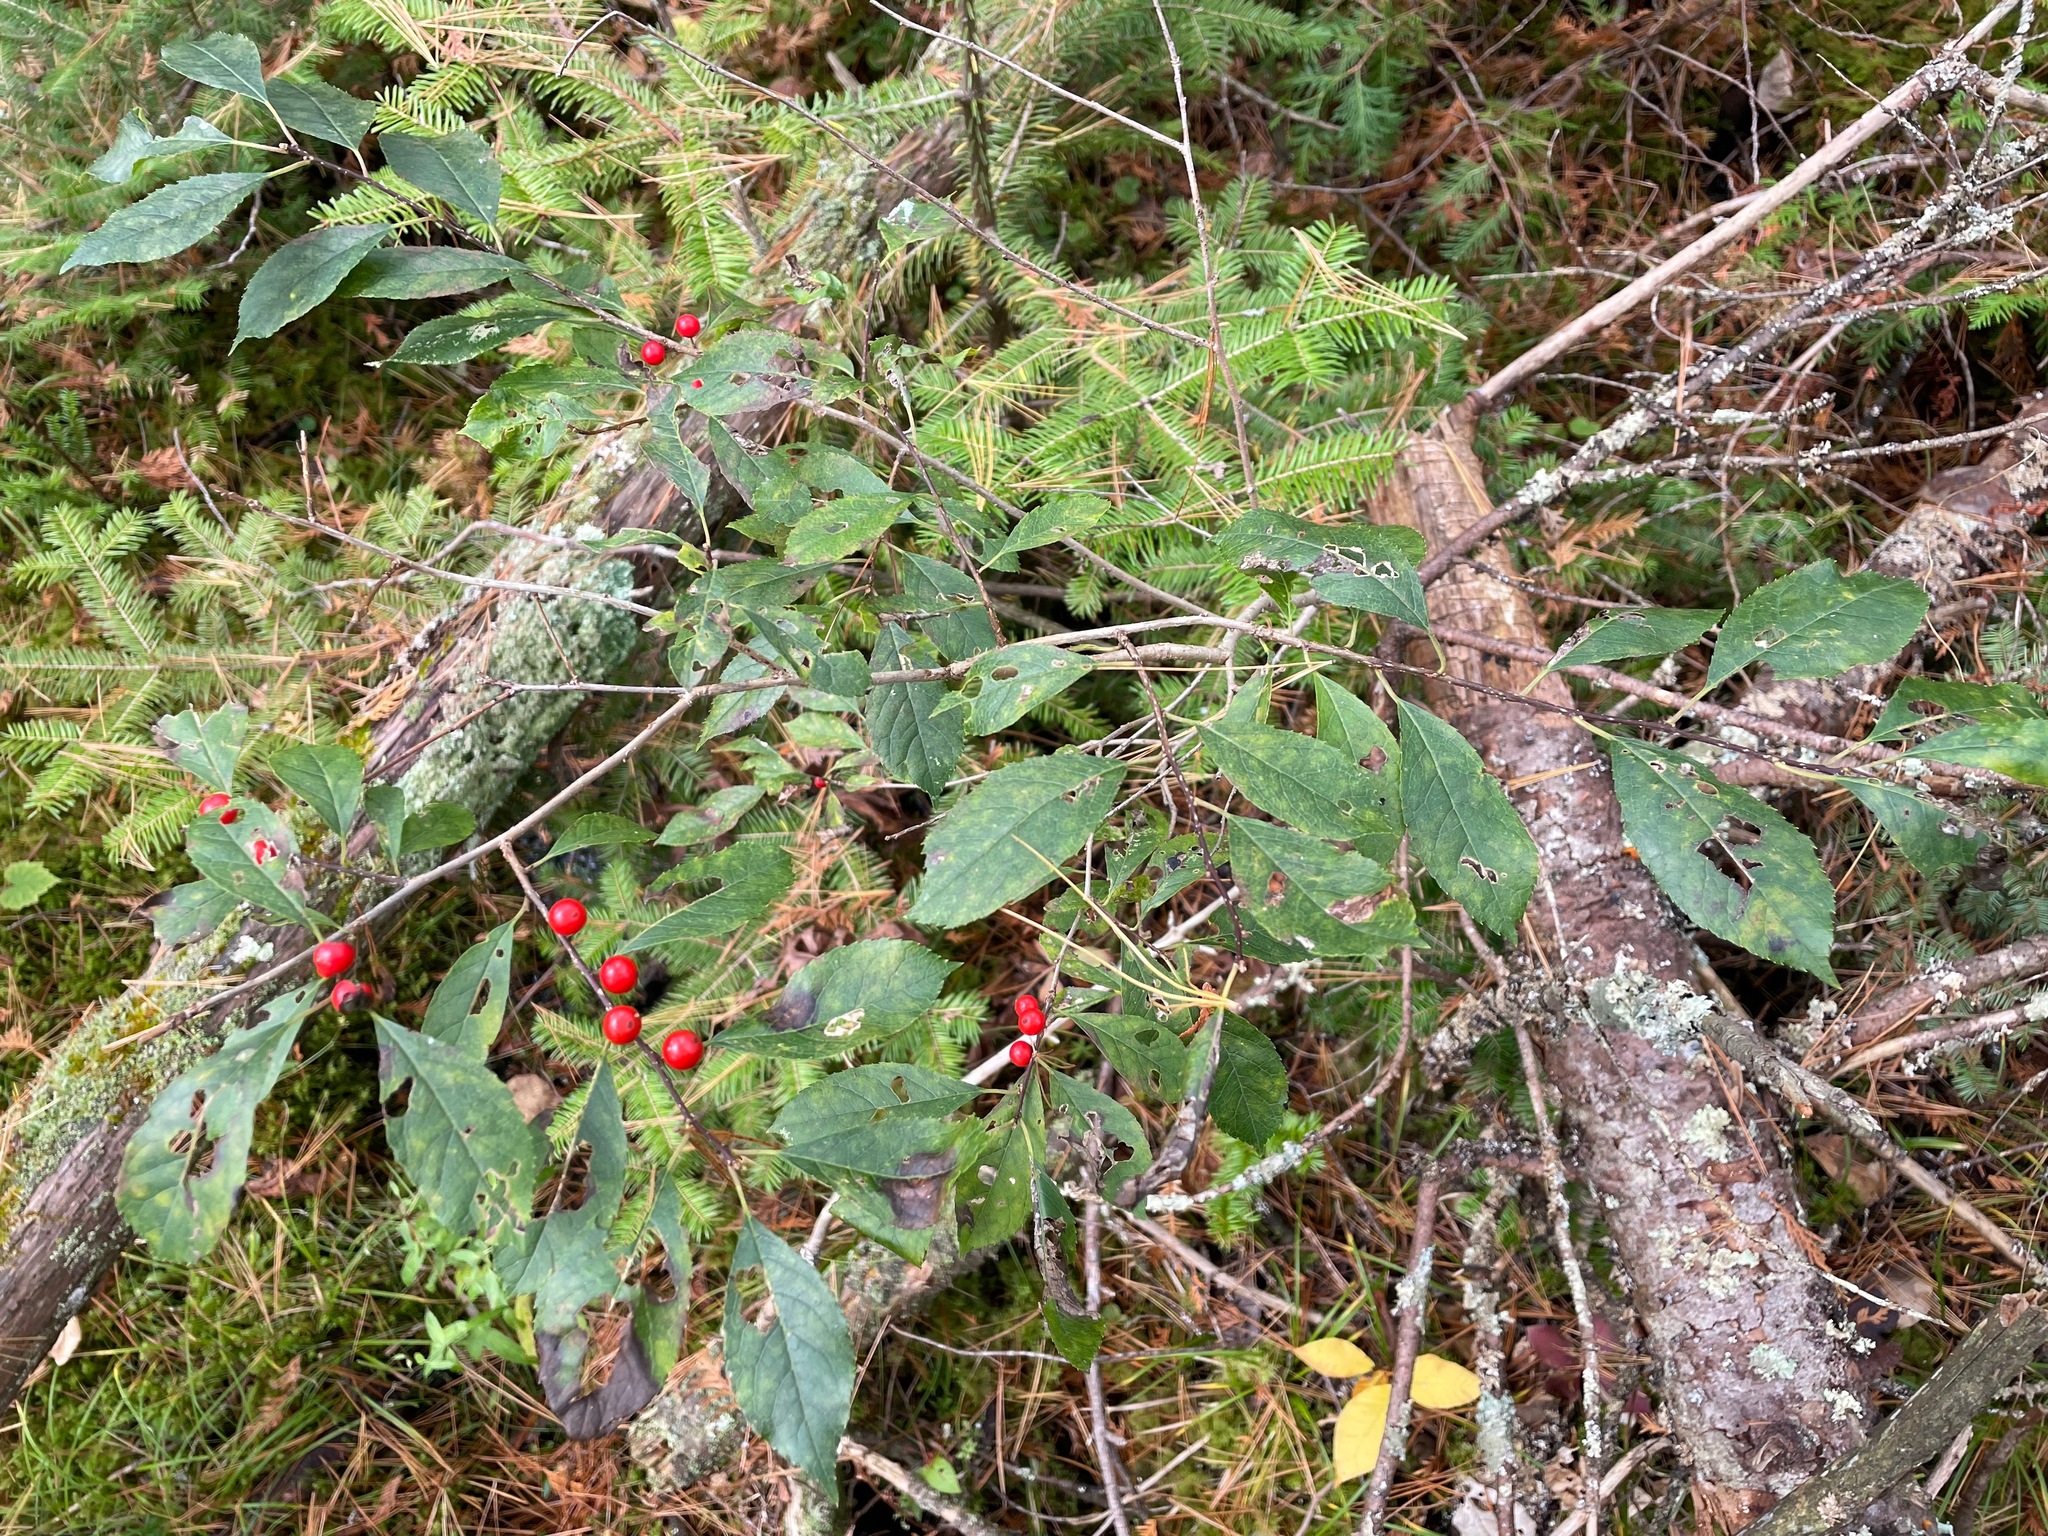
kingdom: Plantae
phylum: Tracheophyta
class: Magnoliopsida
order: Aquifoliales
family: Aquifoliaceae
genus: Ilex
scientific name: Ilex verticillata
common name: Virginia winterberry
